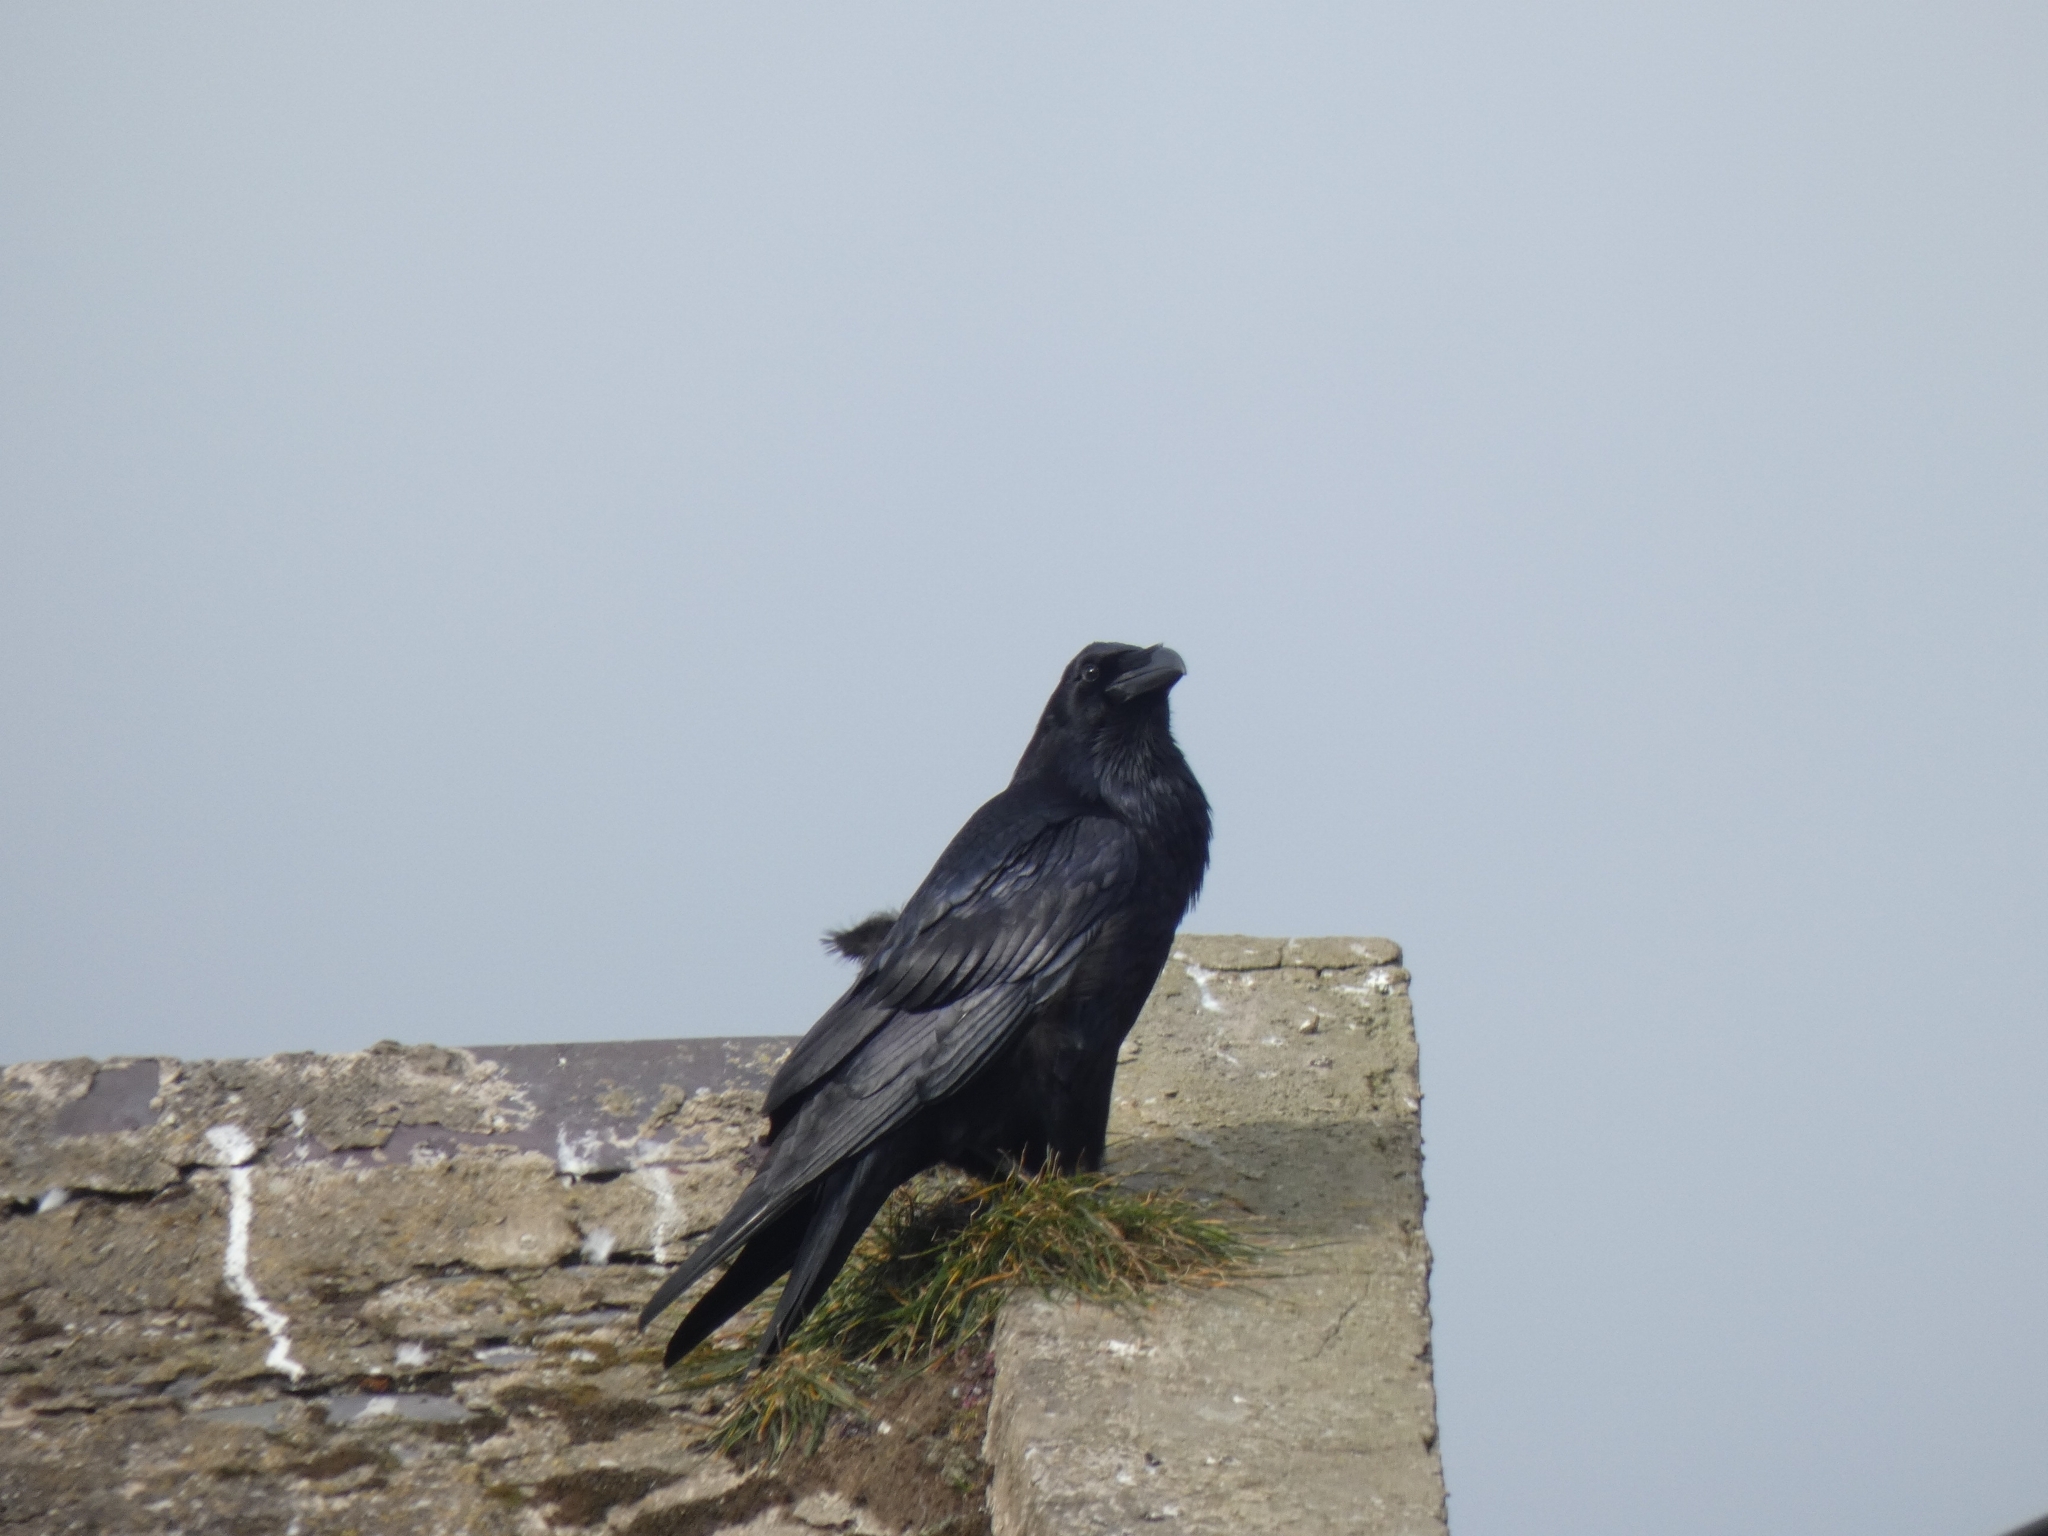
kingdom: Animalia
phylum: Chordata
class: Aves
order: Passeriformes
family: Corvidae
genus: Corvus
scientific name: Corvus corax
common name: Common raven
